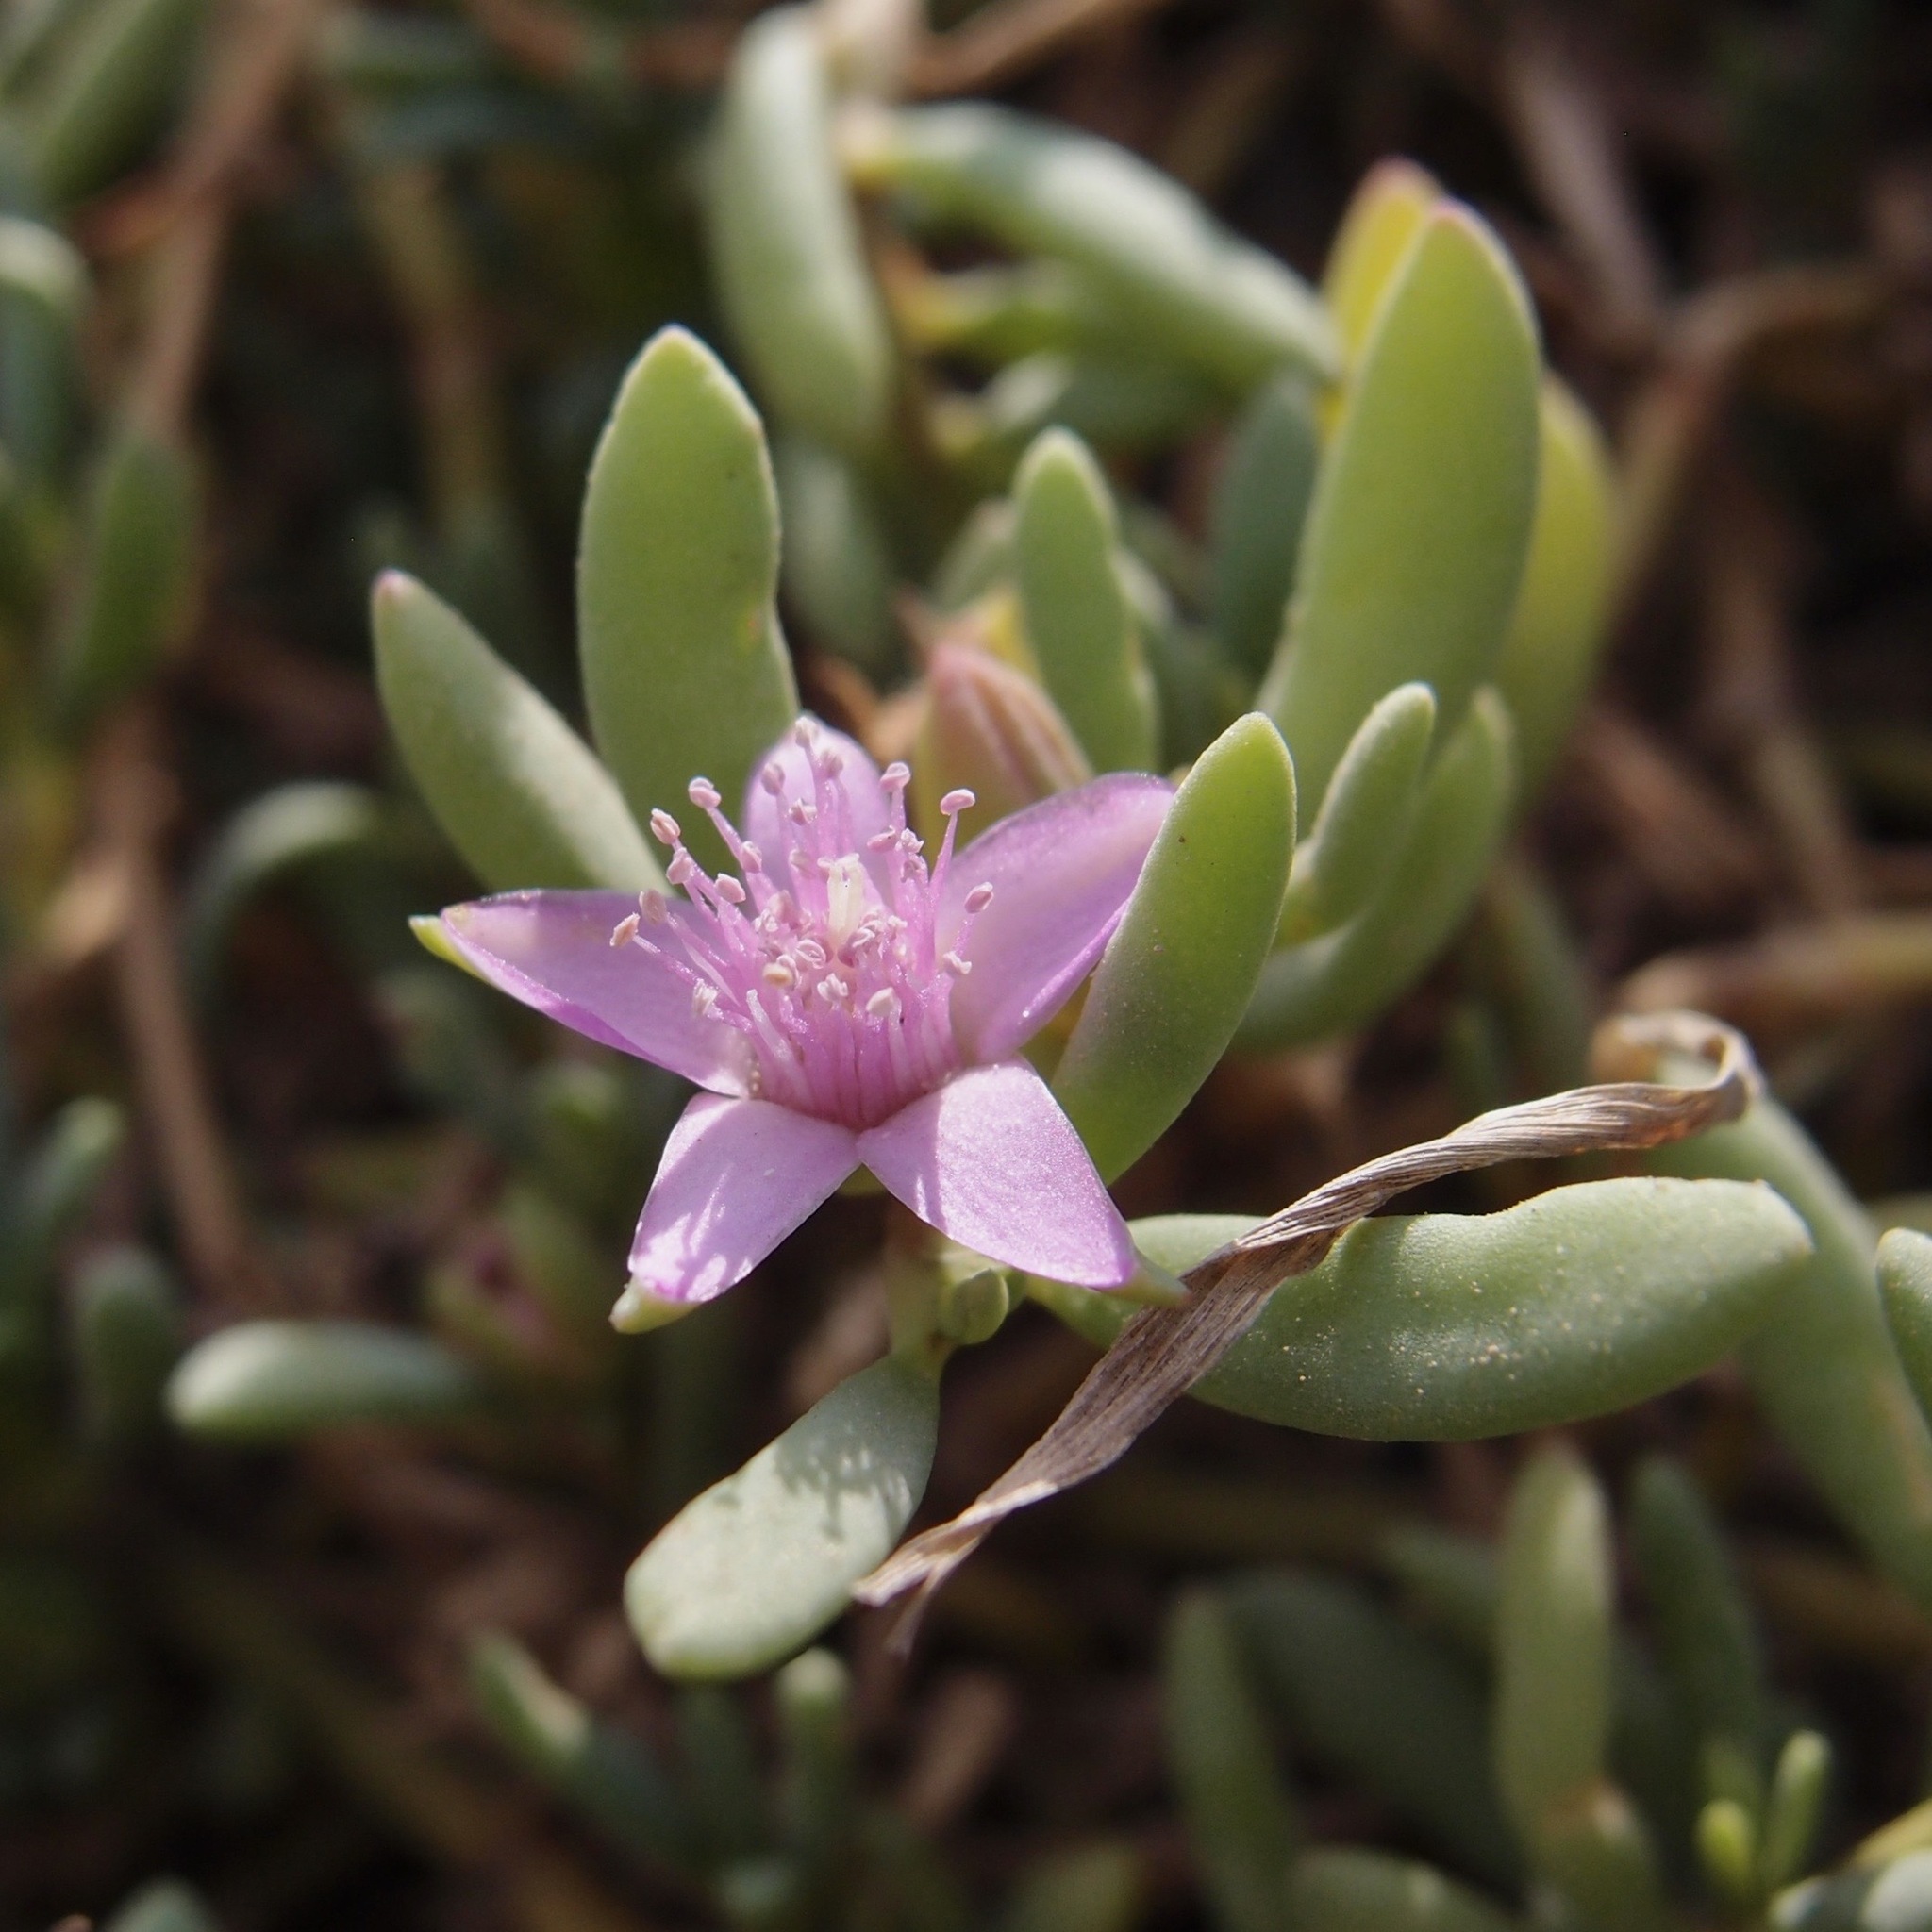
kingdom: Plantae
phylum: Tracheophyta
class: Magnoliopsida
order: Caryophyllales
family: Aizoaceae
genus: Sesuvium
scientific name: Sesuvium portulacastrum
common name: Sea-purslane
